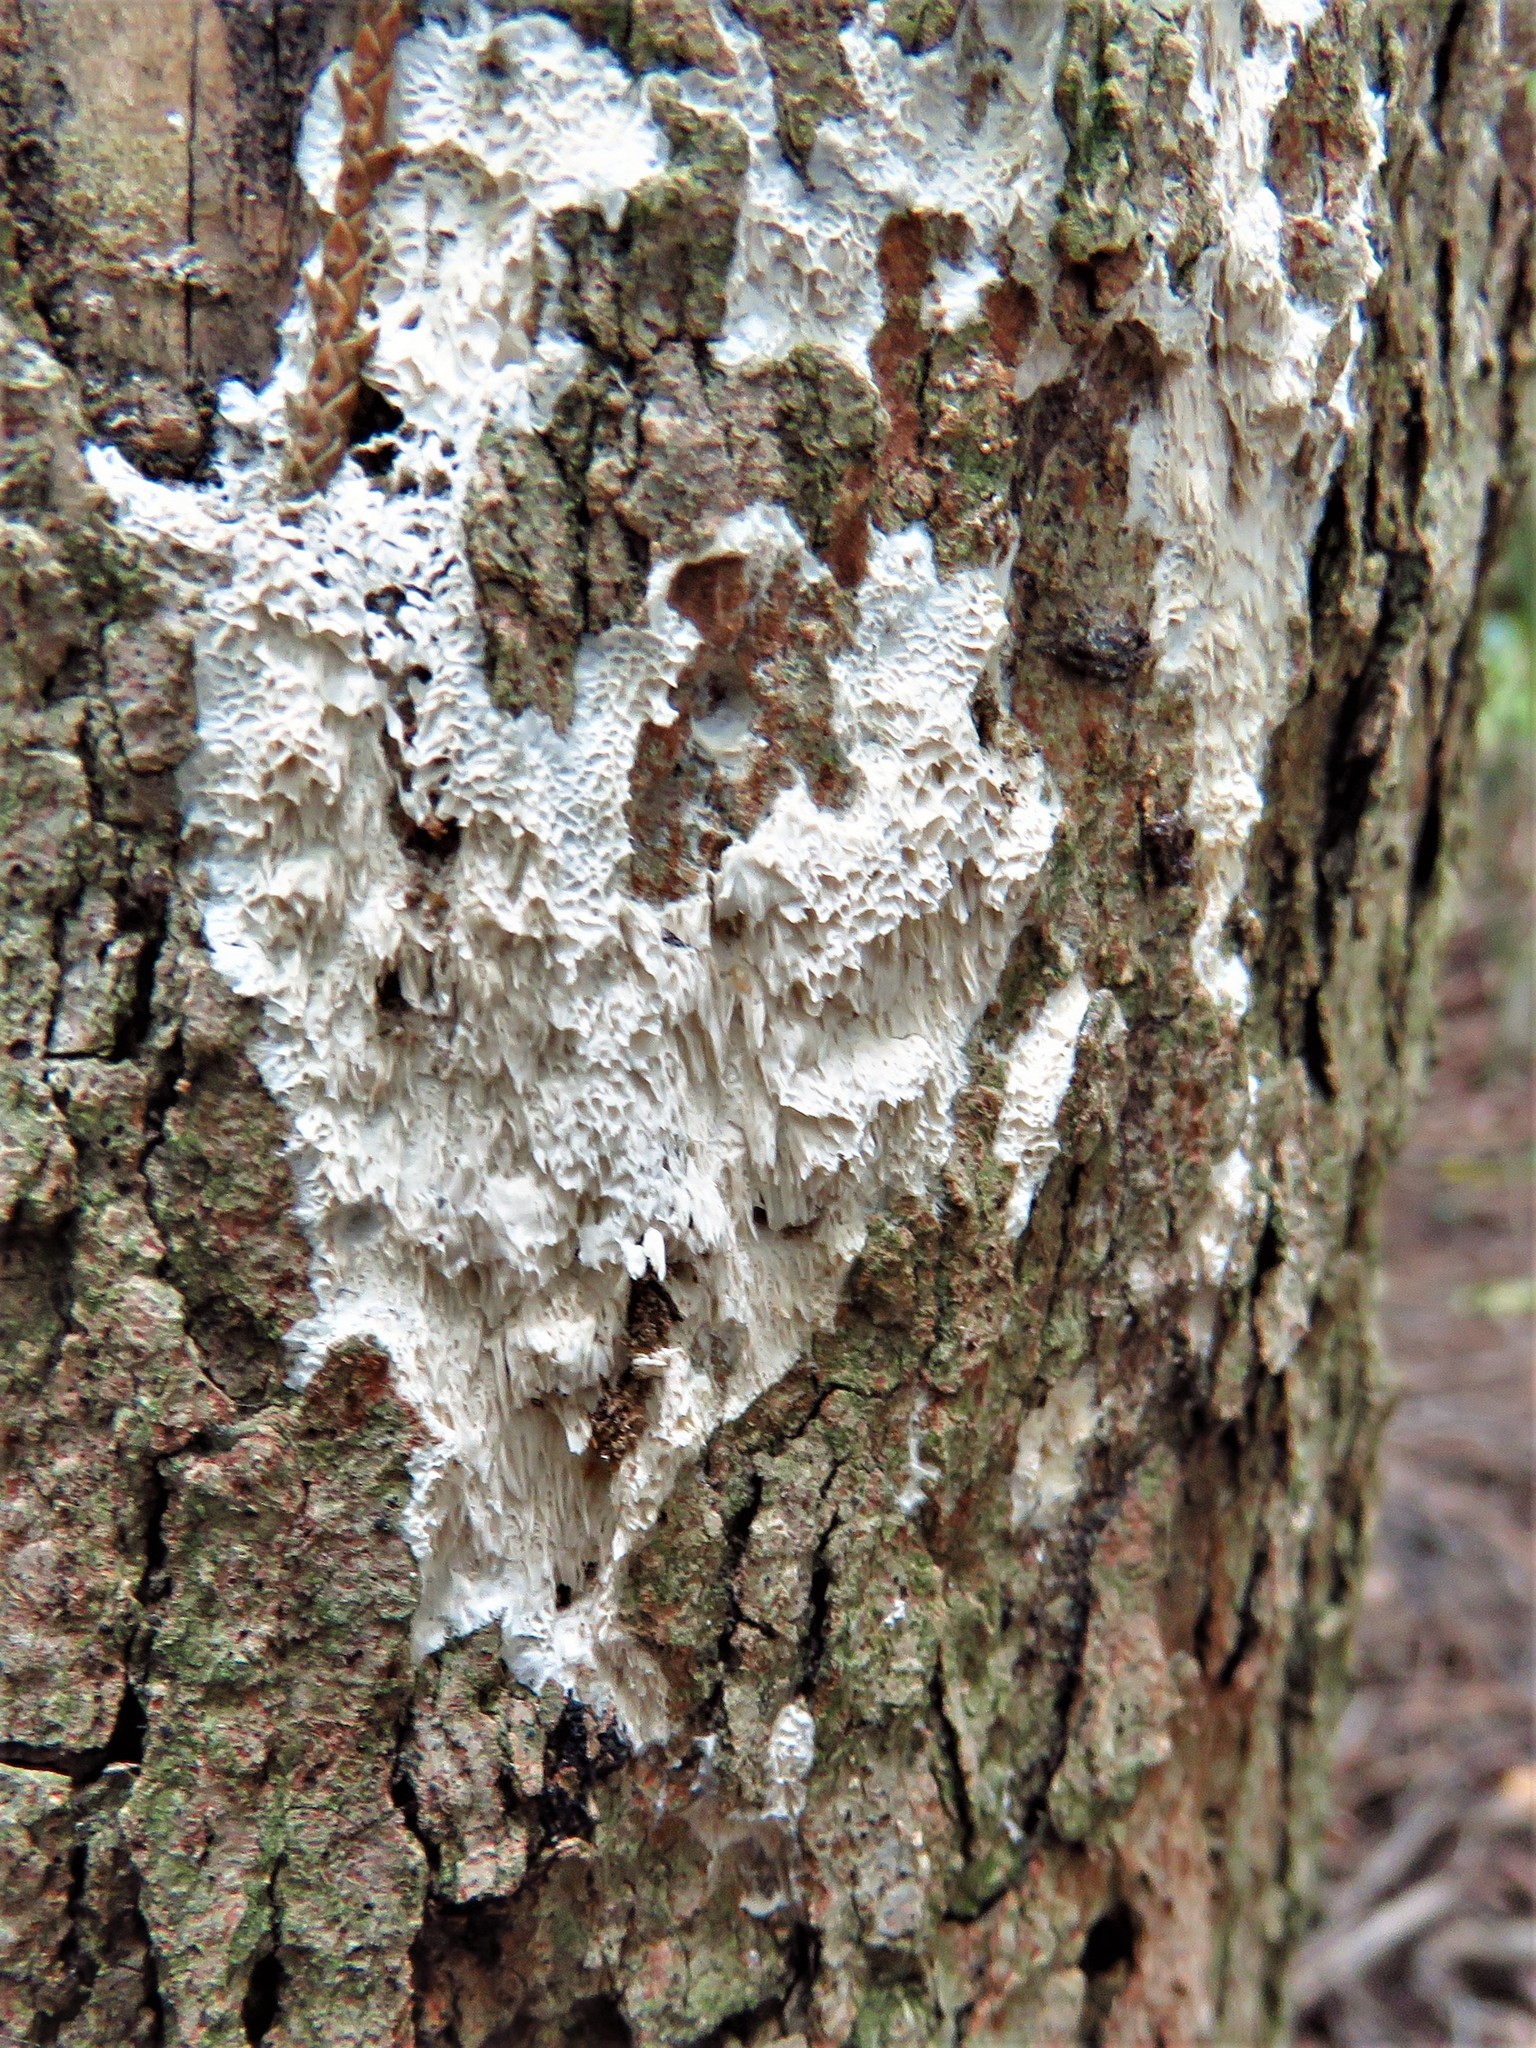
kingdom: Fungi
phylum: Basidiomycota
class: Agaricomycetes
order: Polyporales
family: Irpicaceae
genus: Irpex
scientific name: Irpex lacteus
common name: Milk-white toothed polypore
